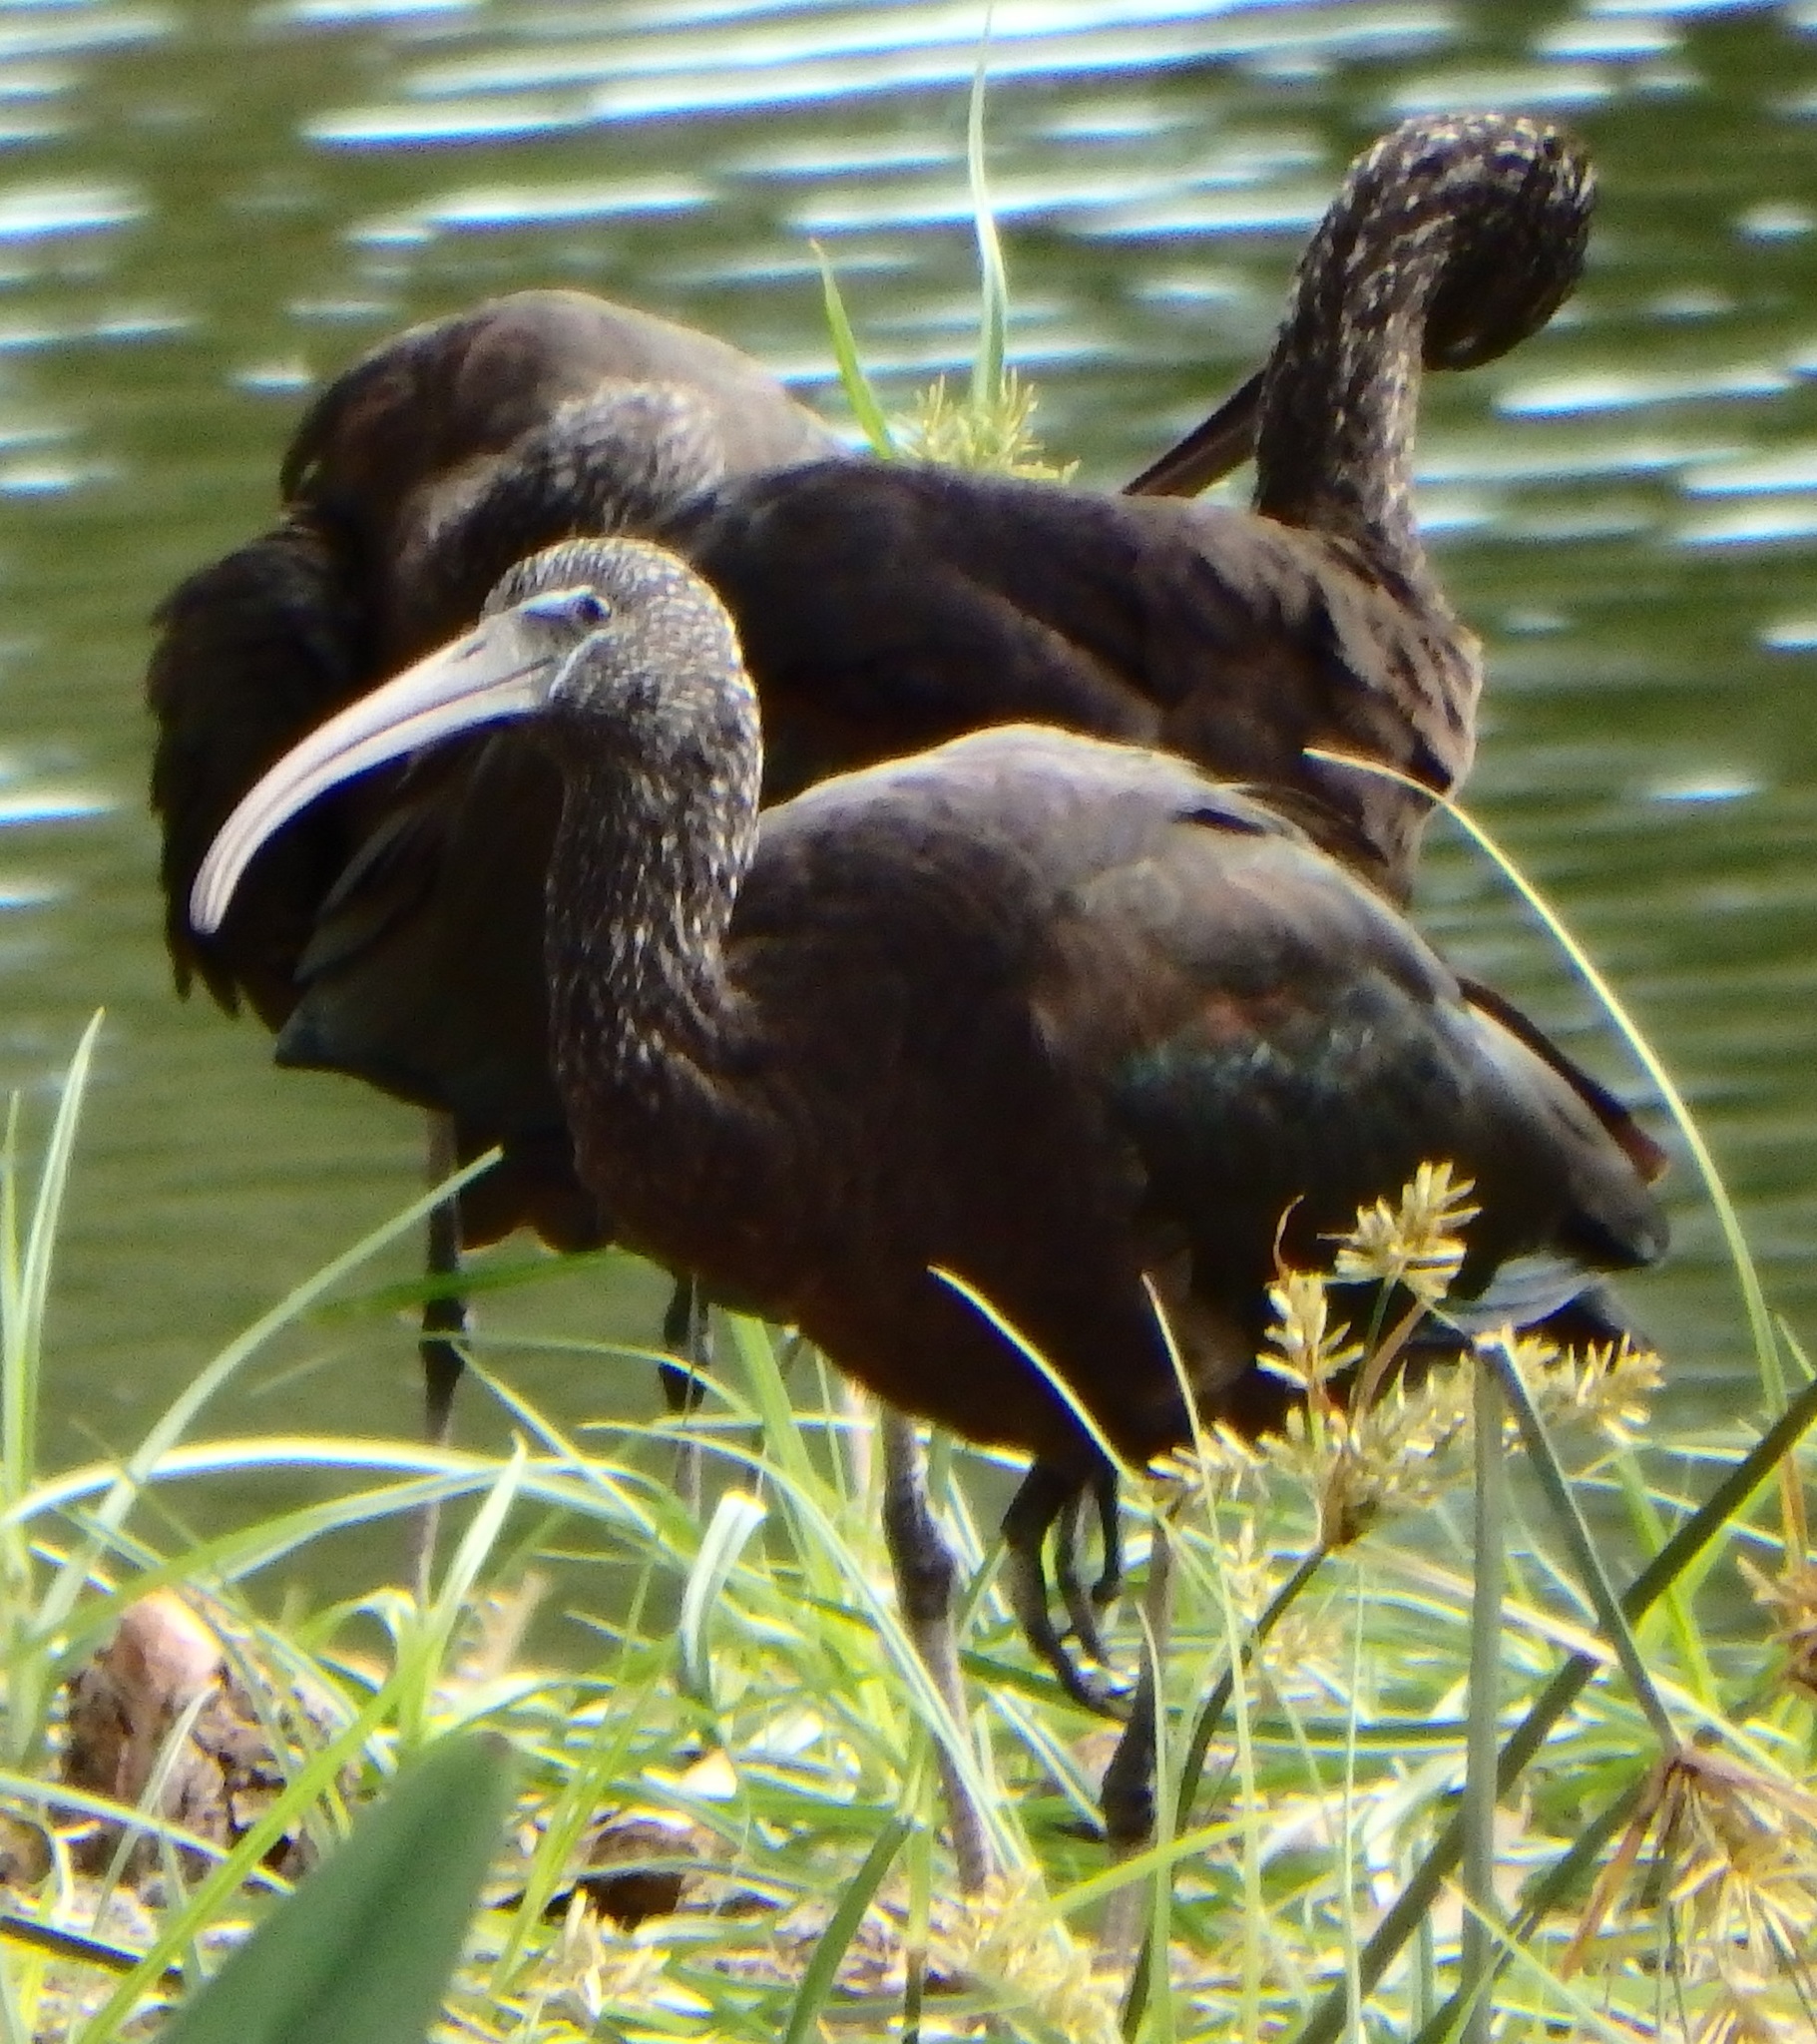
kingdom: Animalia
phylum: Chordata
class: Aves
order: Pelecaniformes
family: Threskiornithidae
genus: Plegadis
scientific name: Plegadis falcinellus
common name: Glossy ibis
